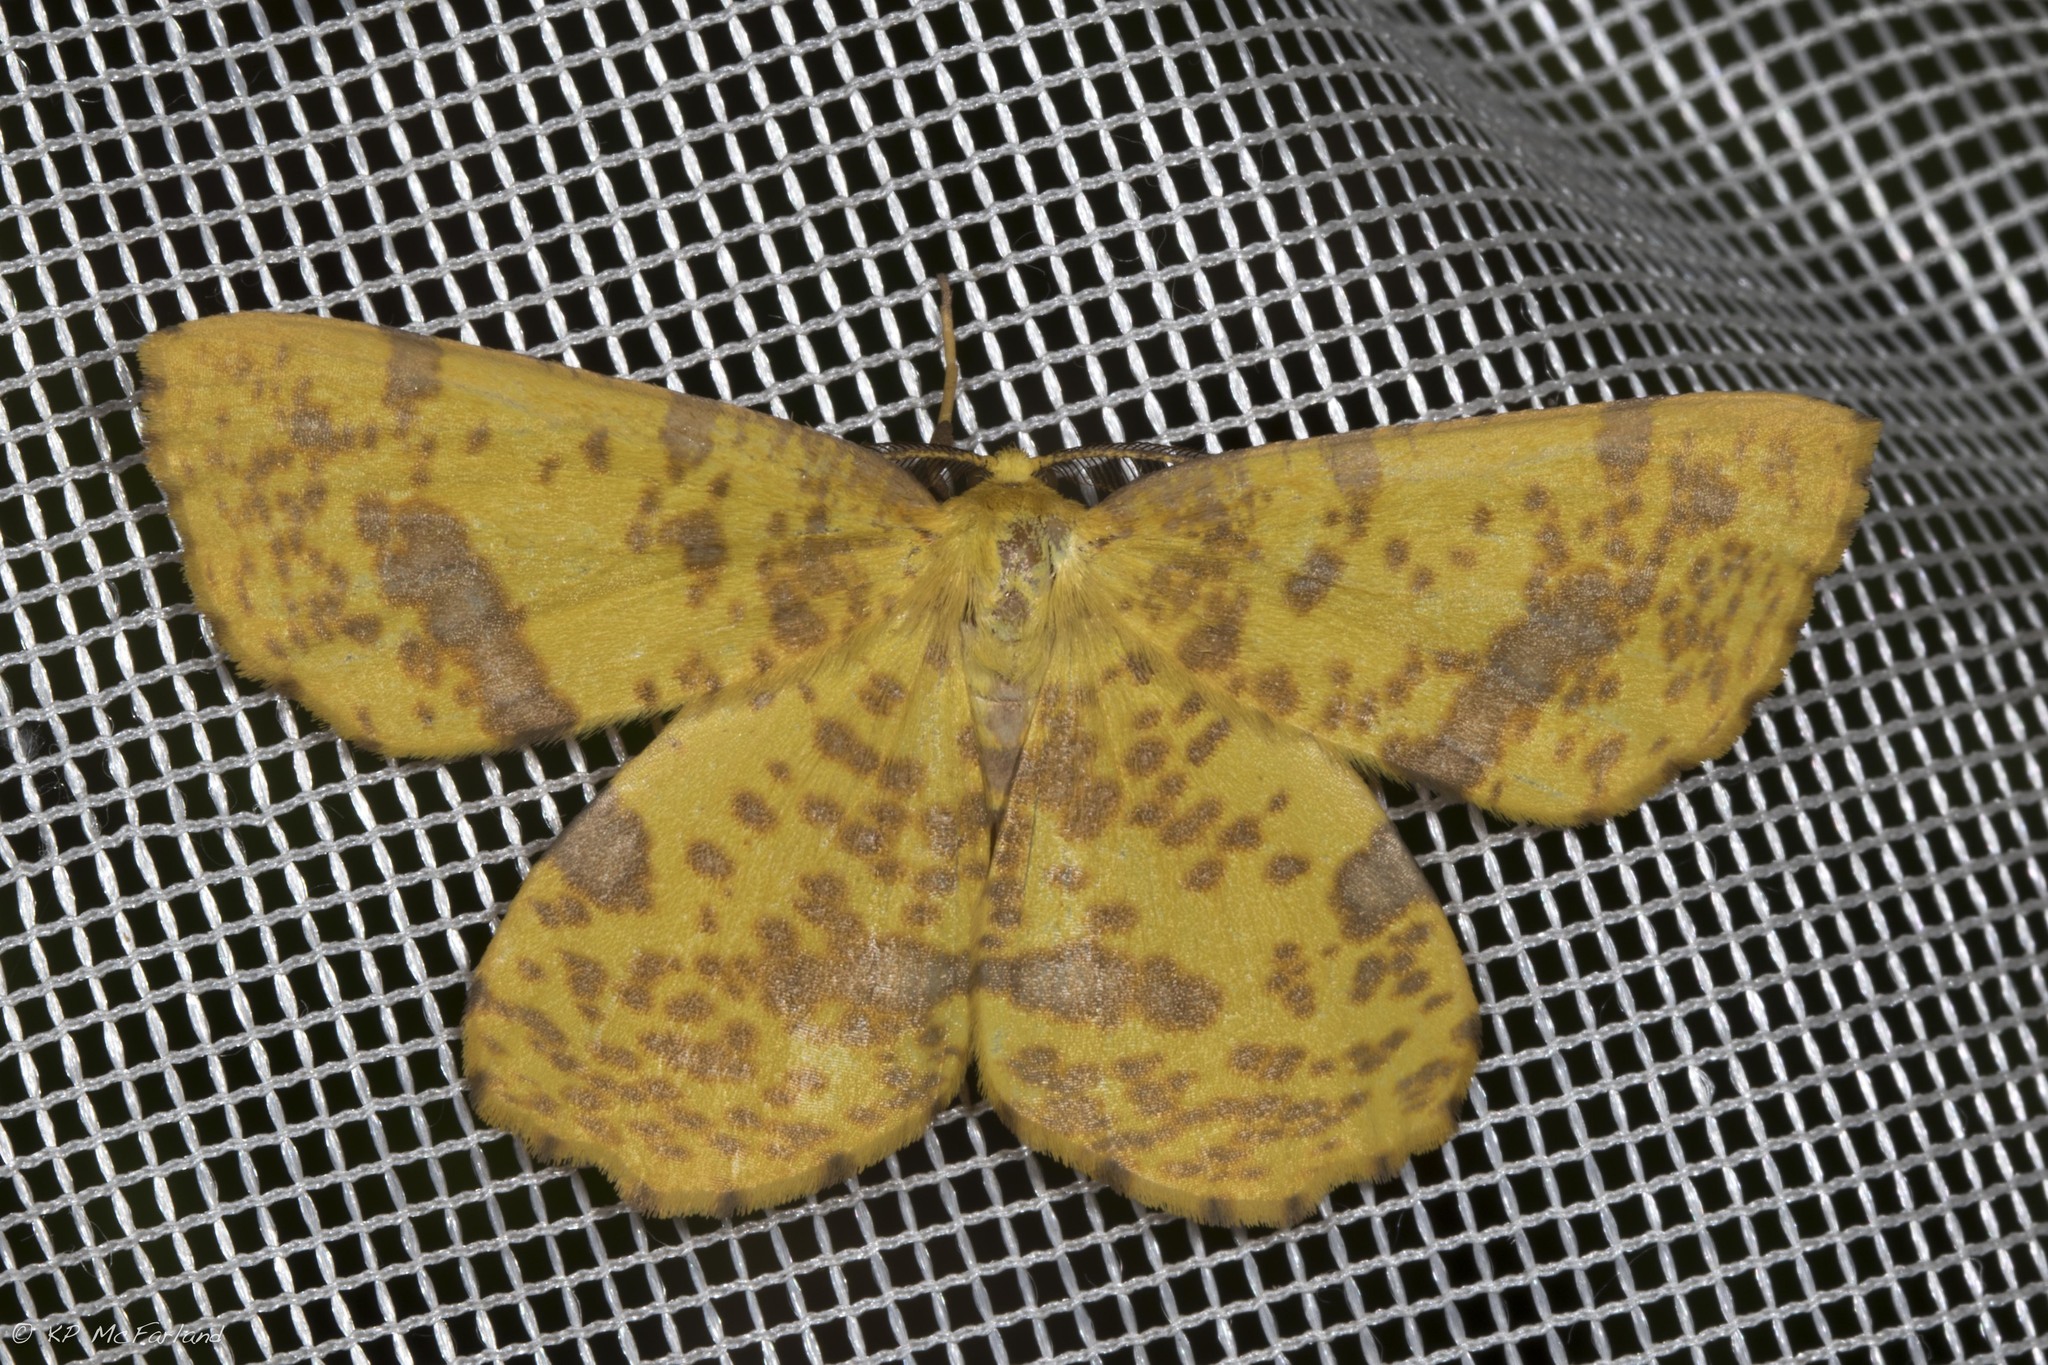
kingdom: Animalia
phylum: Arthropoda
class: Insecta
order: Lepidoptera
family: Geometridae
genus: Xanthotype
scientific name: Xanthotype
